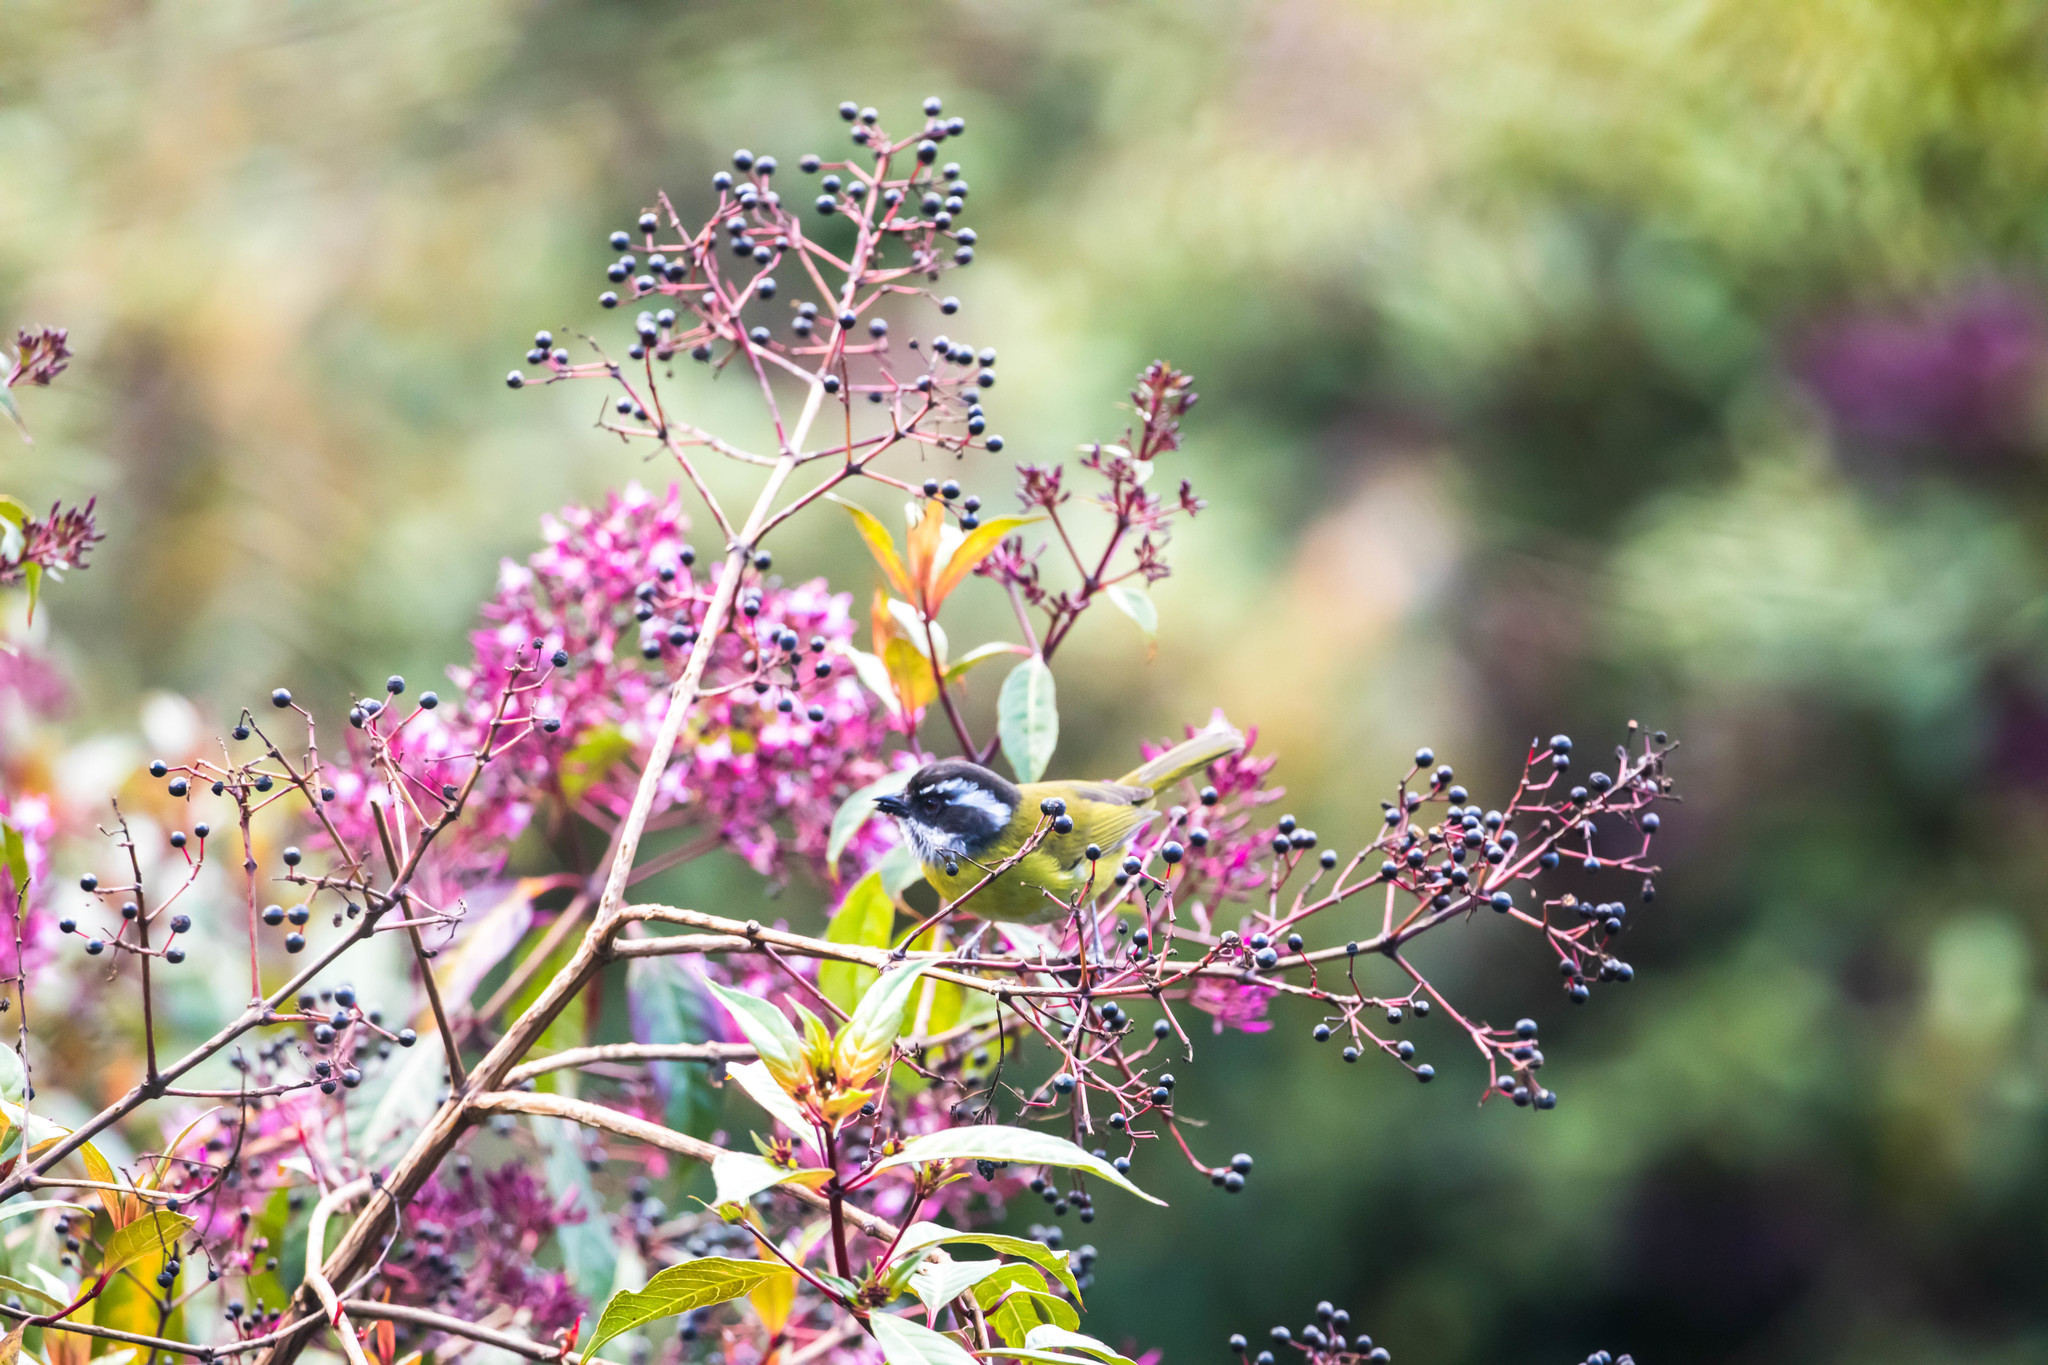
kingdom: Animalia
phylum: Chordata
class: Aves
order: Passeriformes
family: Passerellidae
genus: Chlorospingus
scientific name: Chlorospingus pileatus
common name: Sooty-capped bush-tanager
